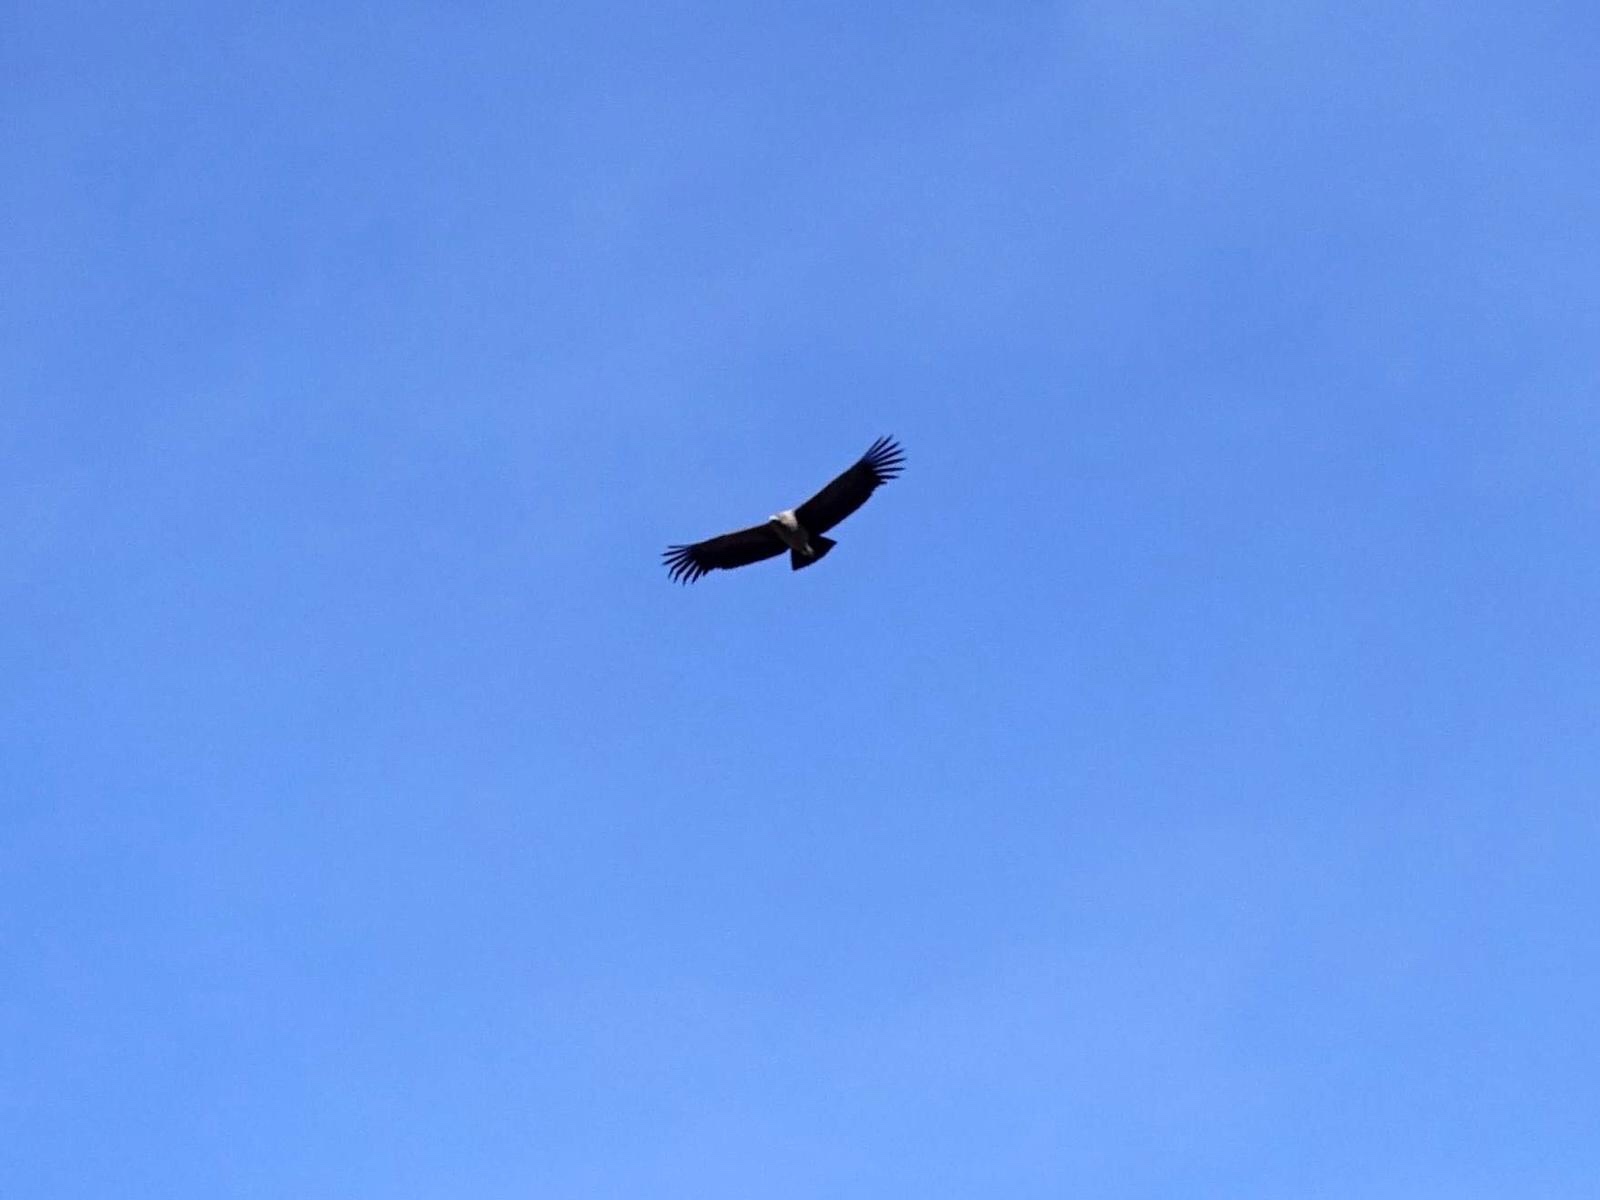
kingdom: Animalia
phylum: Chordata
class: Aves
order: Accipitriformes
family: Cathartidae
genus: Vultur
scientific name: Vultur gryphus
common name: Andean condor
